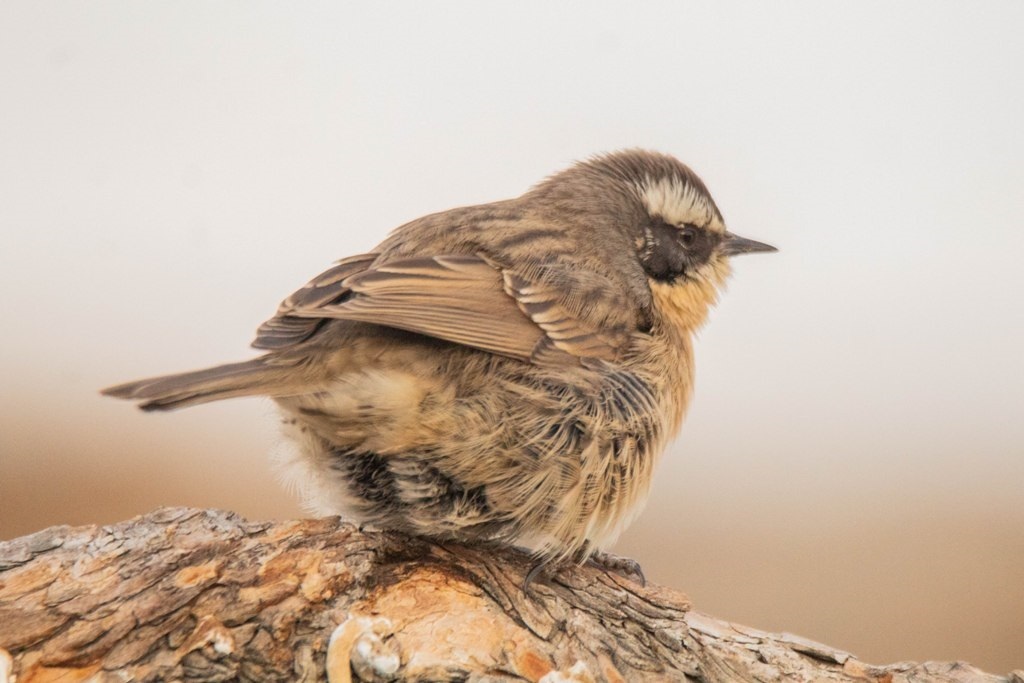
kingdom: Animalia
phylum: Chordata
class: Aves
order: Passeriformes
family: Prunellidae
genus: Prunella
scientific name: Prunella fulvescens
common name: Brown accentor
